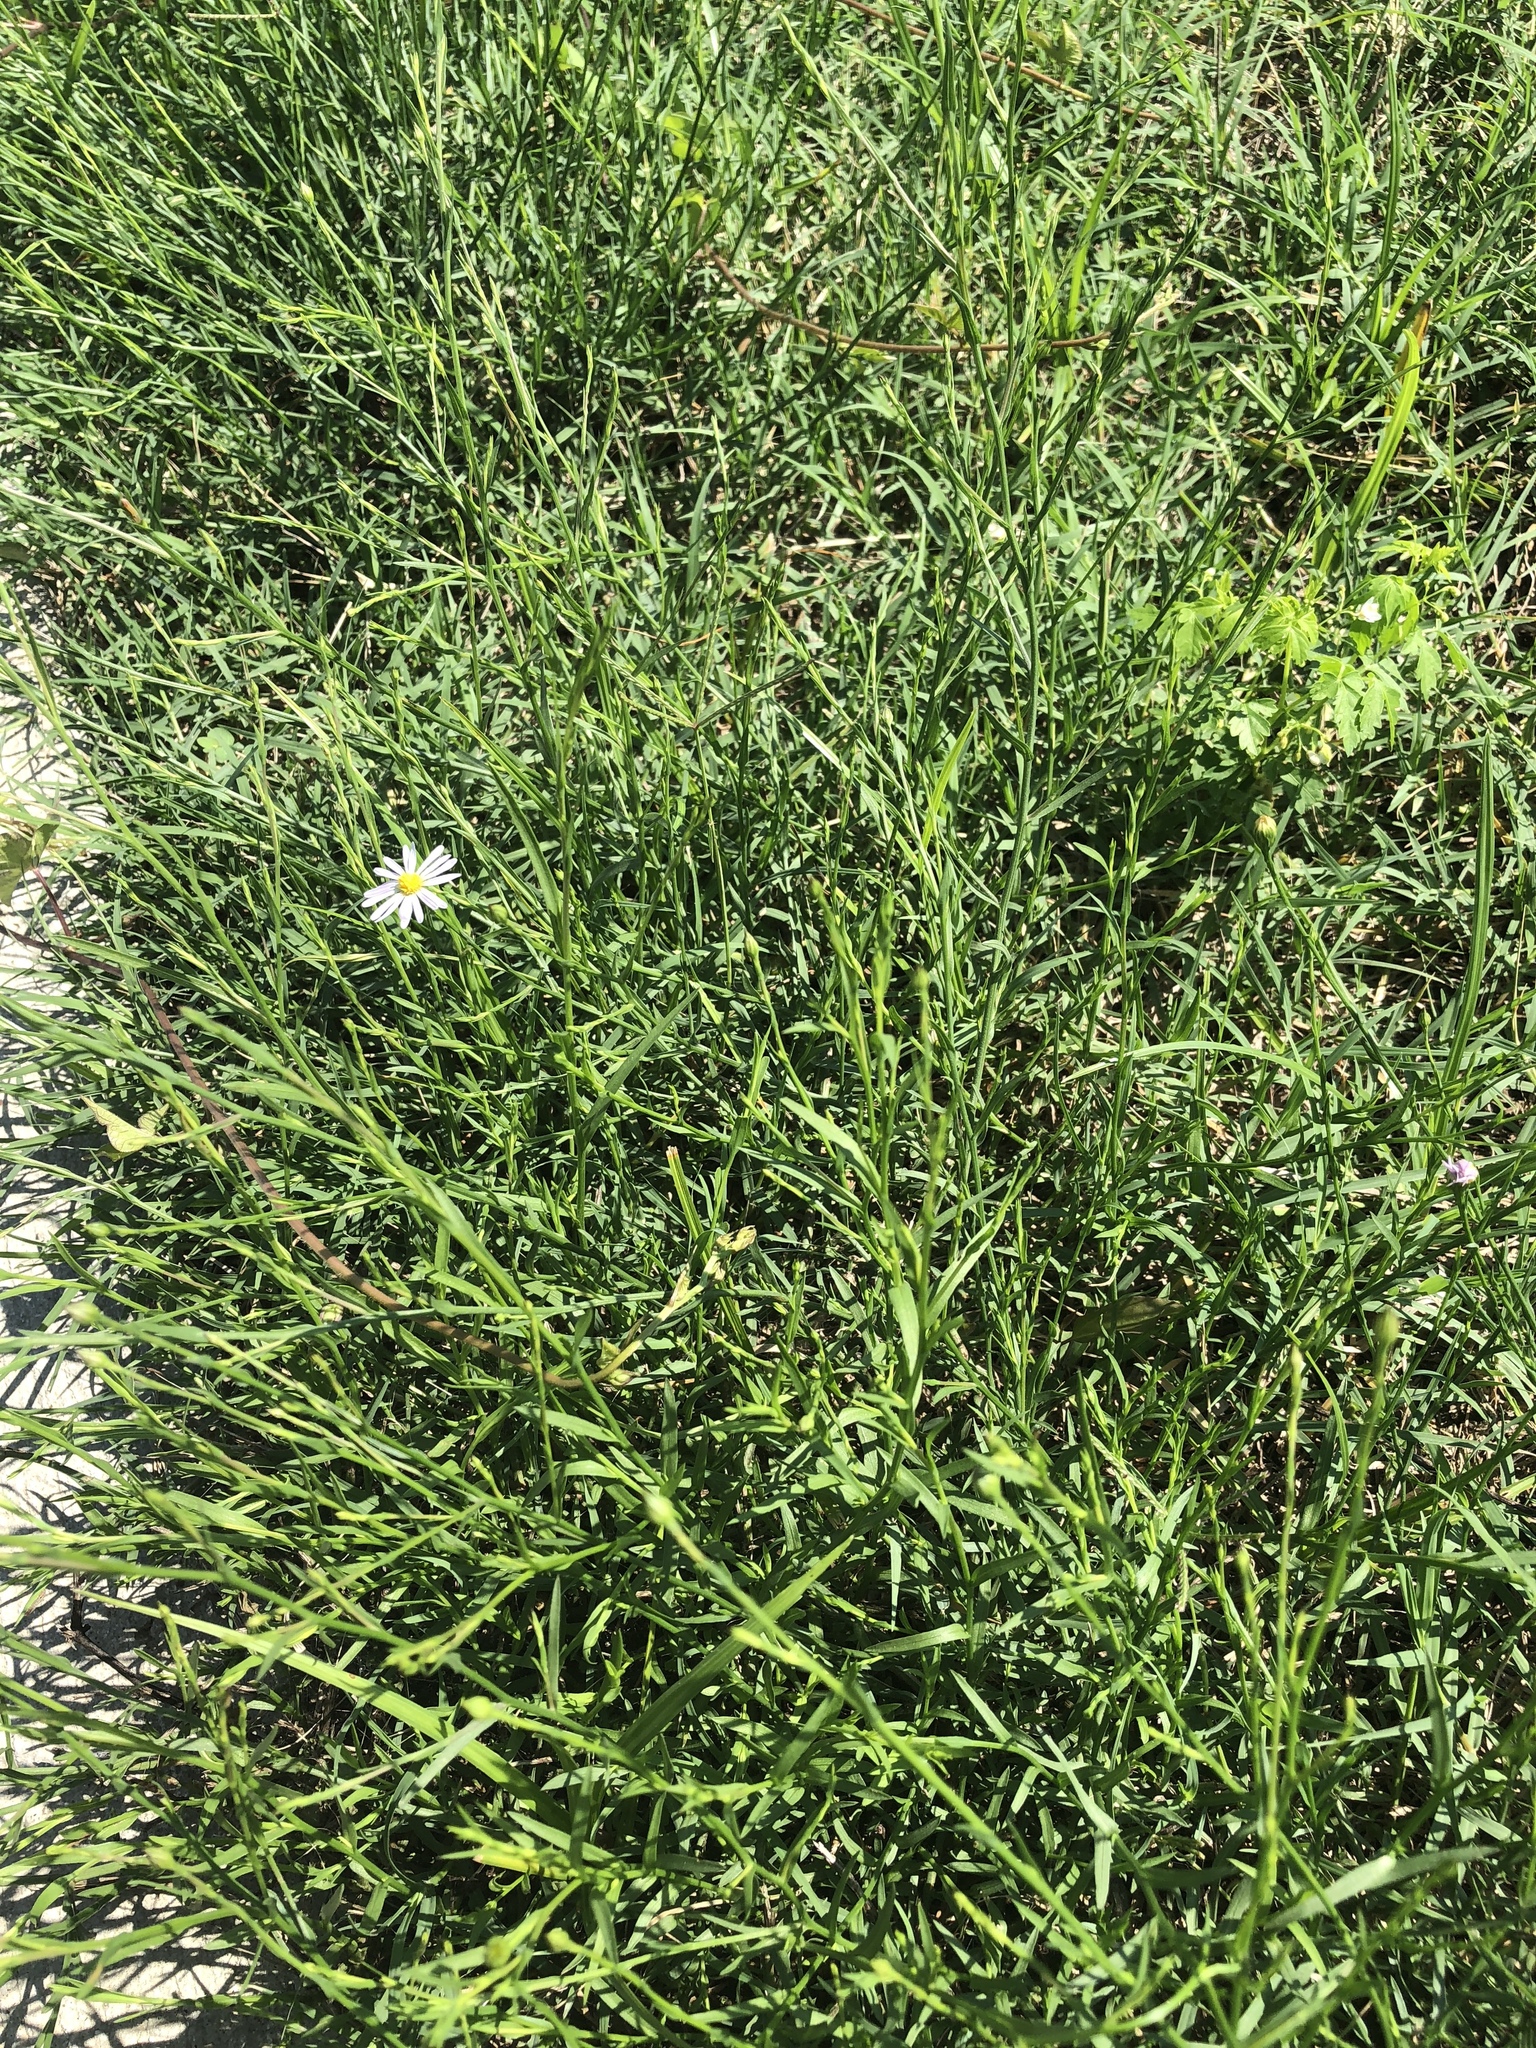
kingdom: Plantae
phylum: Tracheophyta
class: Magnoliopsida
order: Asterales
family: Asteraceae
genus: Symphyotrichum
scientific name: Symphyotrichum divaricatum
